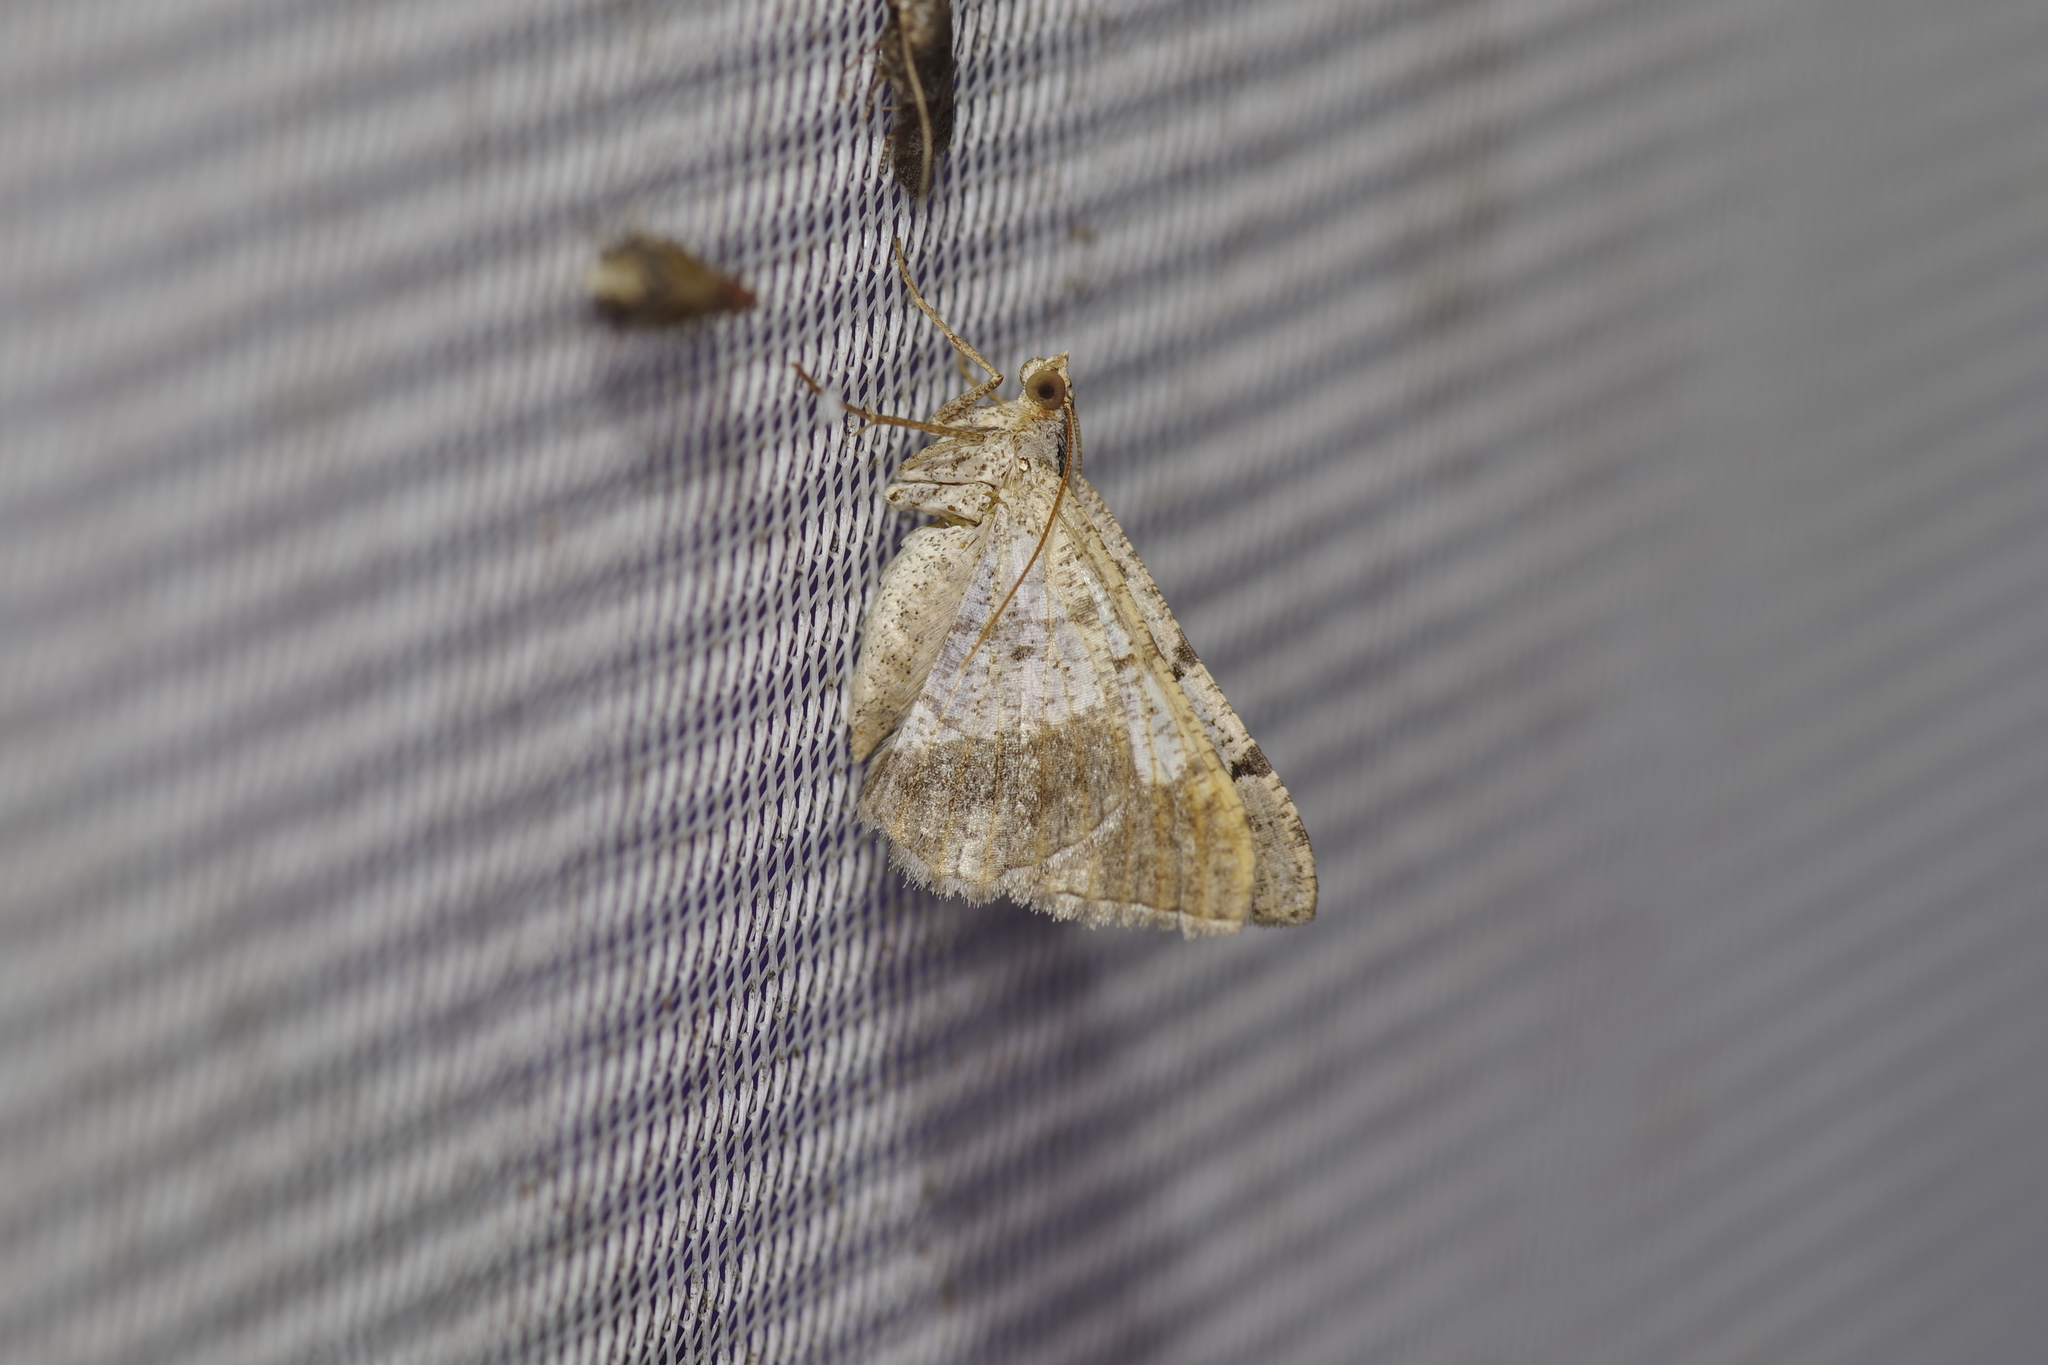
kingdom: Animalia
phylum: Arthropoda
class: Insecta
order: Lepidoptera
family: Geometridae
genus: Macaria
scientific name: Macaria abydata
